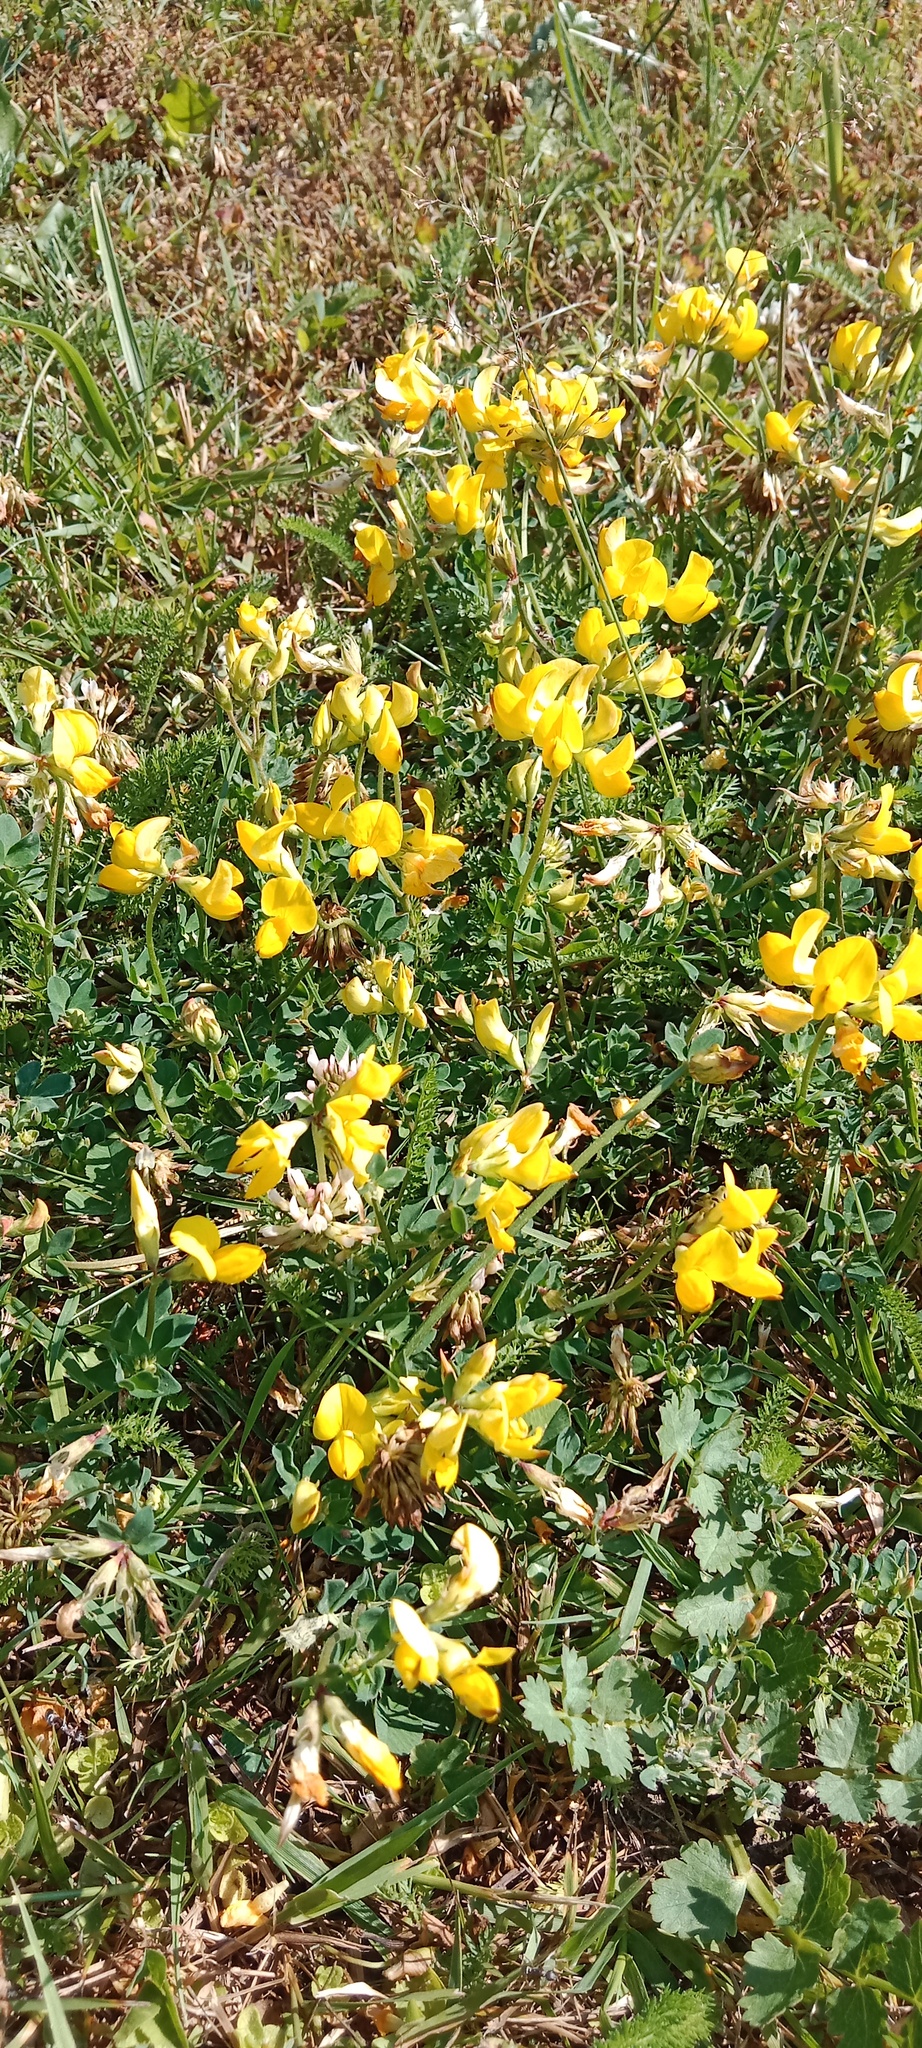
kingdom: Plantae
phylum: Tracheophyta
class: Magnoliopsida
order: Fabales
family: Fabaceae
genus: Lotus
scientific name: Lotus corniculatus
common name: Common bird's-foot-trefoil
